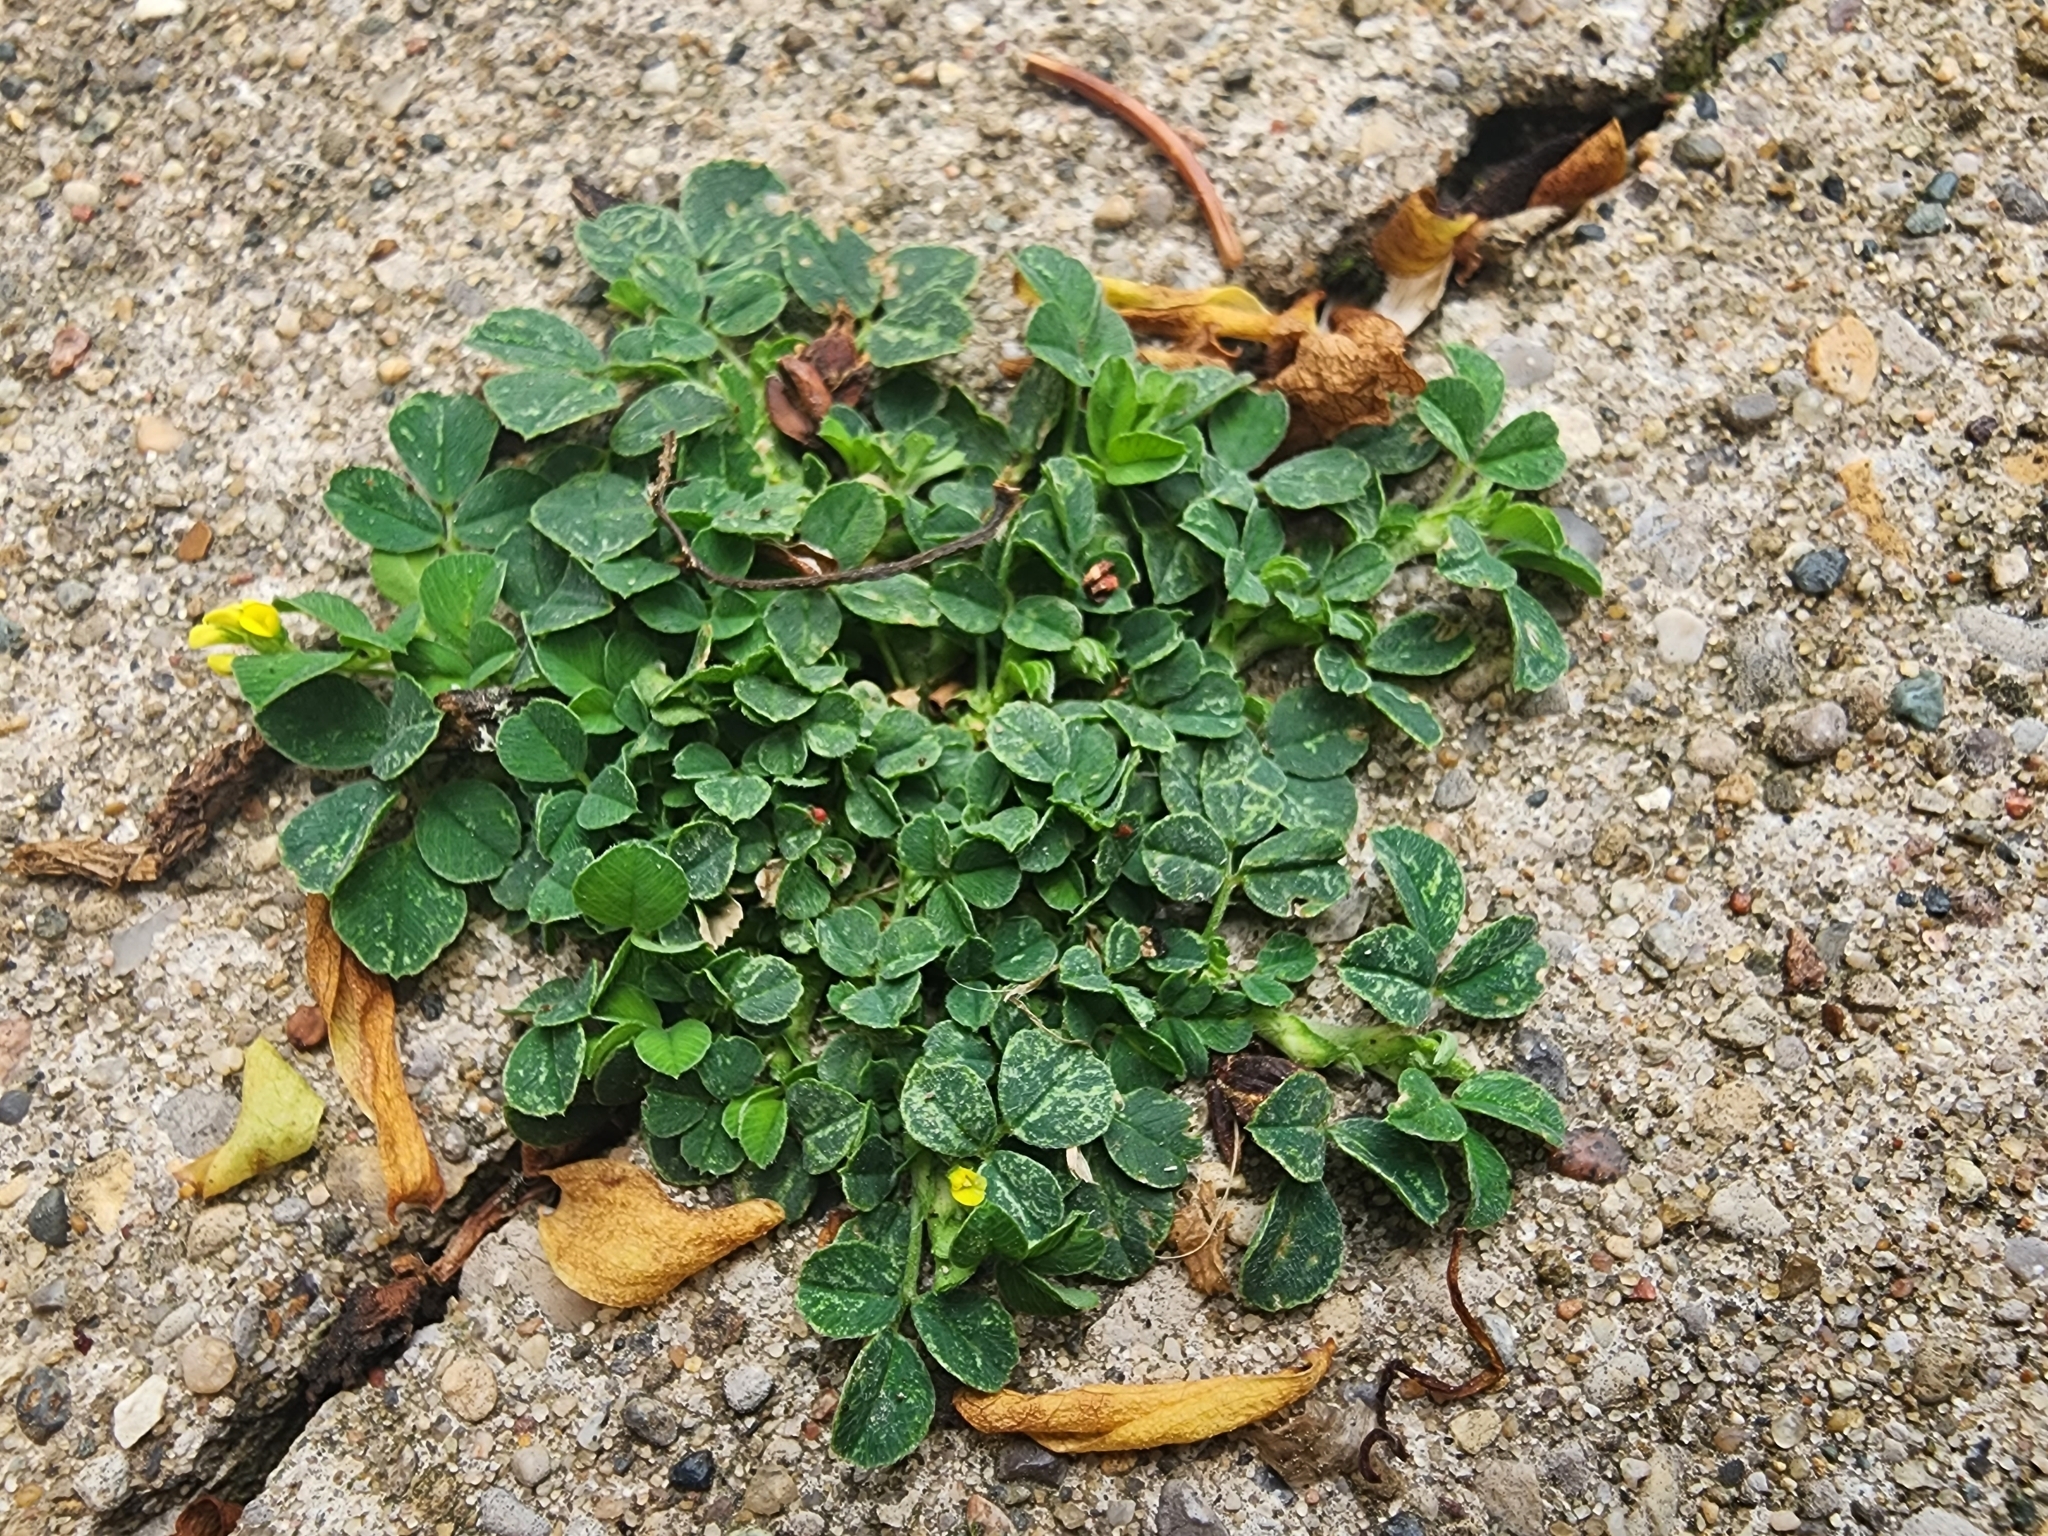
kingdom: Plantae
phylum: Tracheophyta
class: Magnoliopsida
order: Fabales
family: Fabaceae
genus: Medicago
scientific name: Medicago lupulina
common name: Black medick
